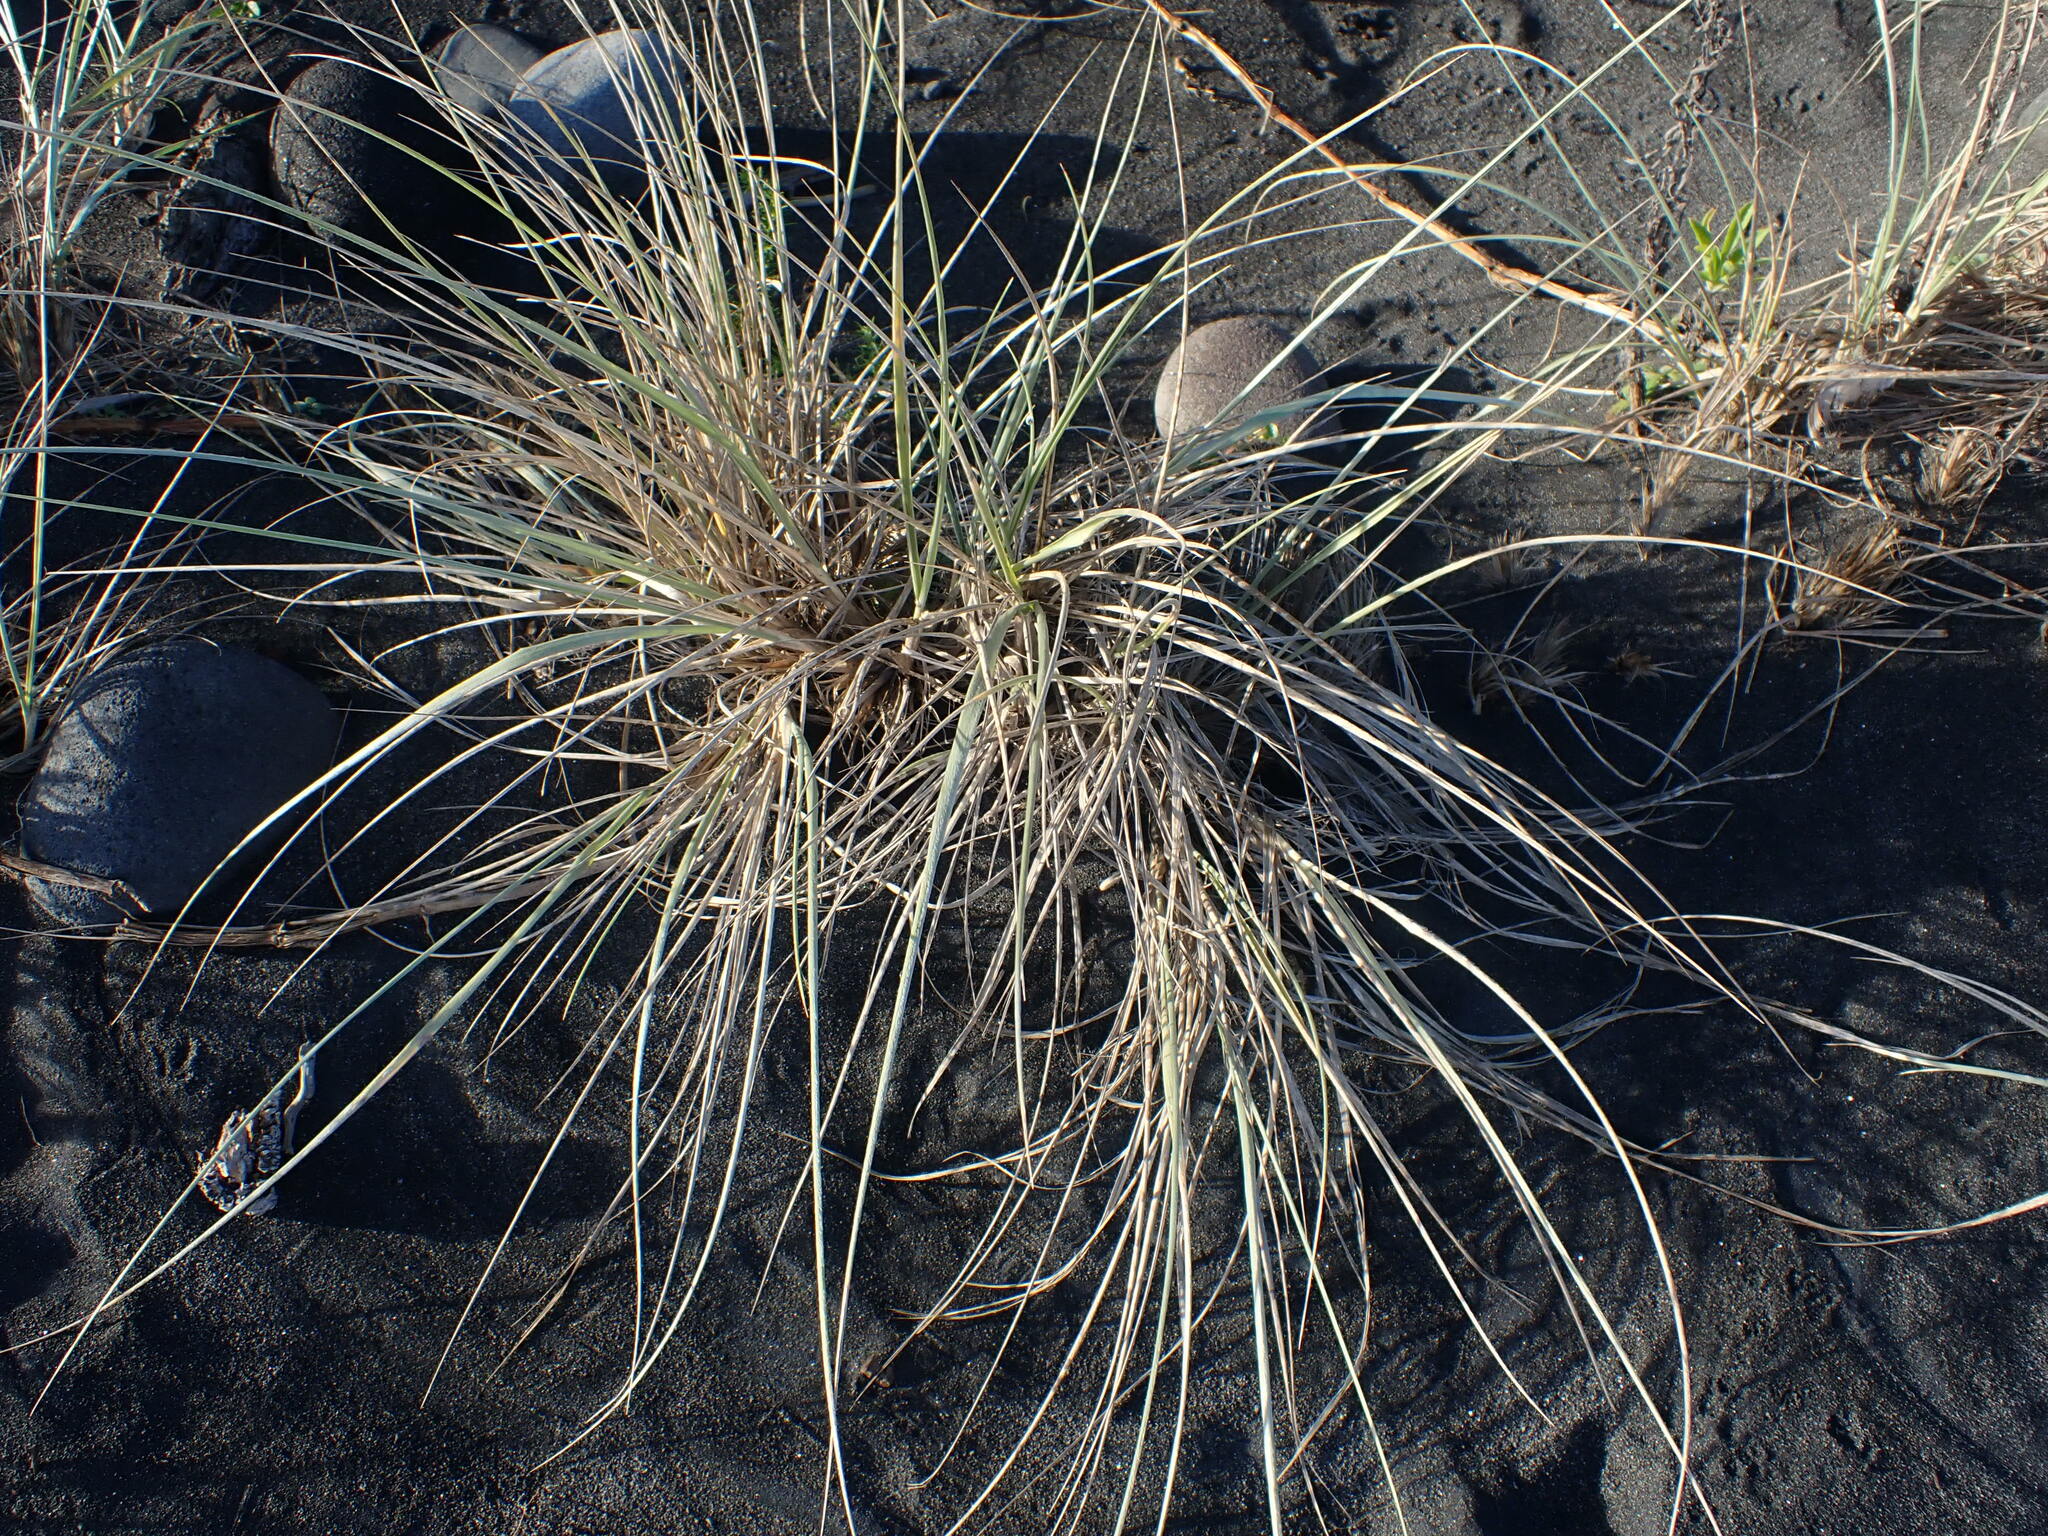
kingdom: Plantae
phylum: Tracheophyta
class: Liliopsida
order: Poales
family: Poaceae
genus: Spinifex
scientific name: Spinifex sericeus
